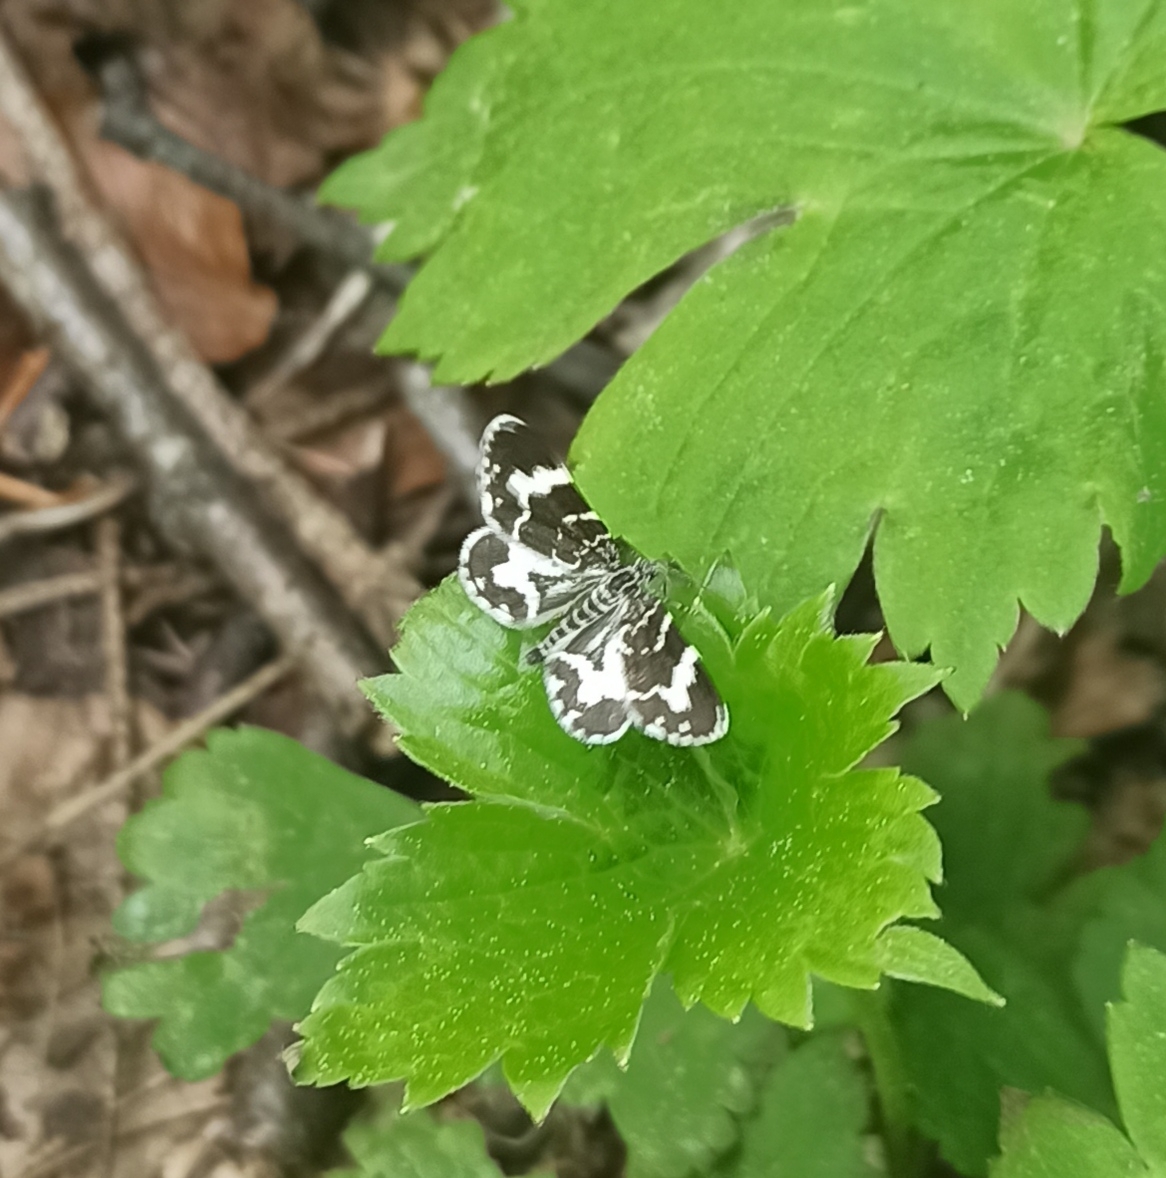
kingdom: Animalia
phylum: Arthropoda
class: Insecta
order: Lepidoptera
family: Geometridae
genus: Trichodezia
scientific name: Trichodezia haberhaueri
